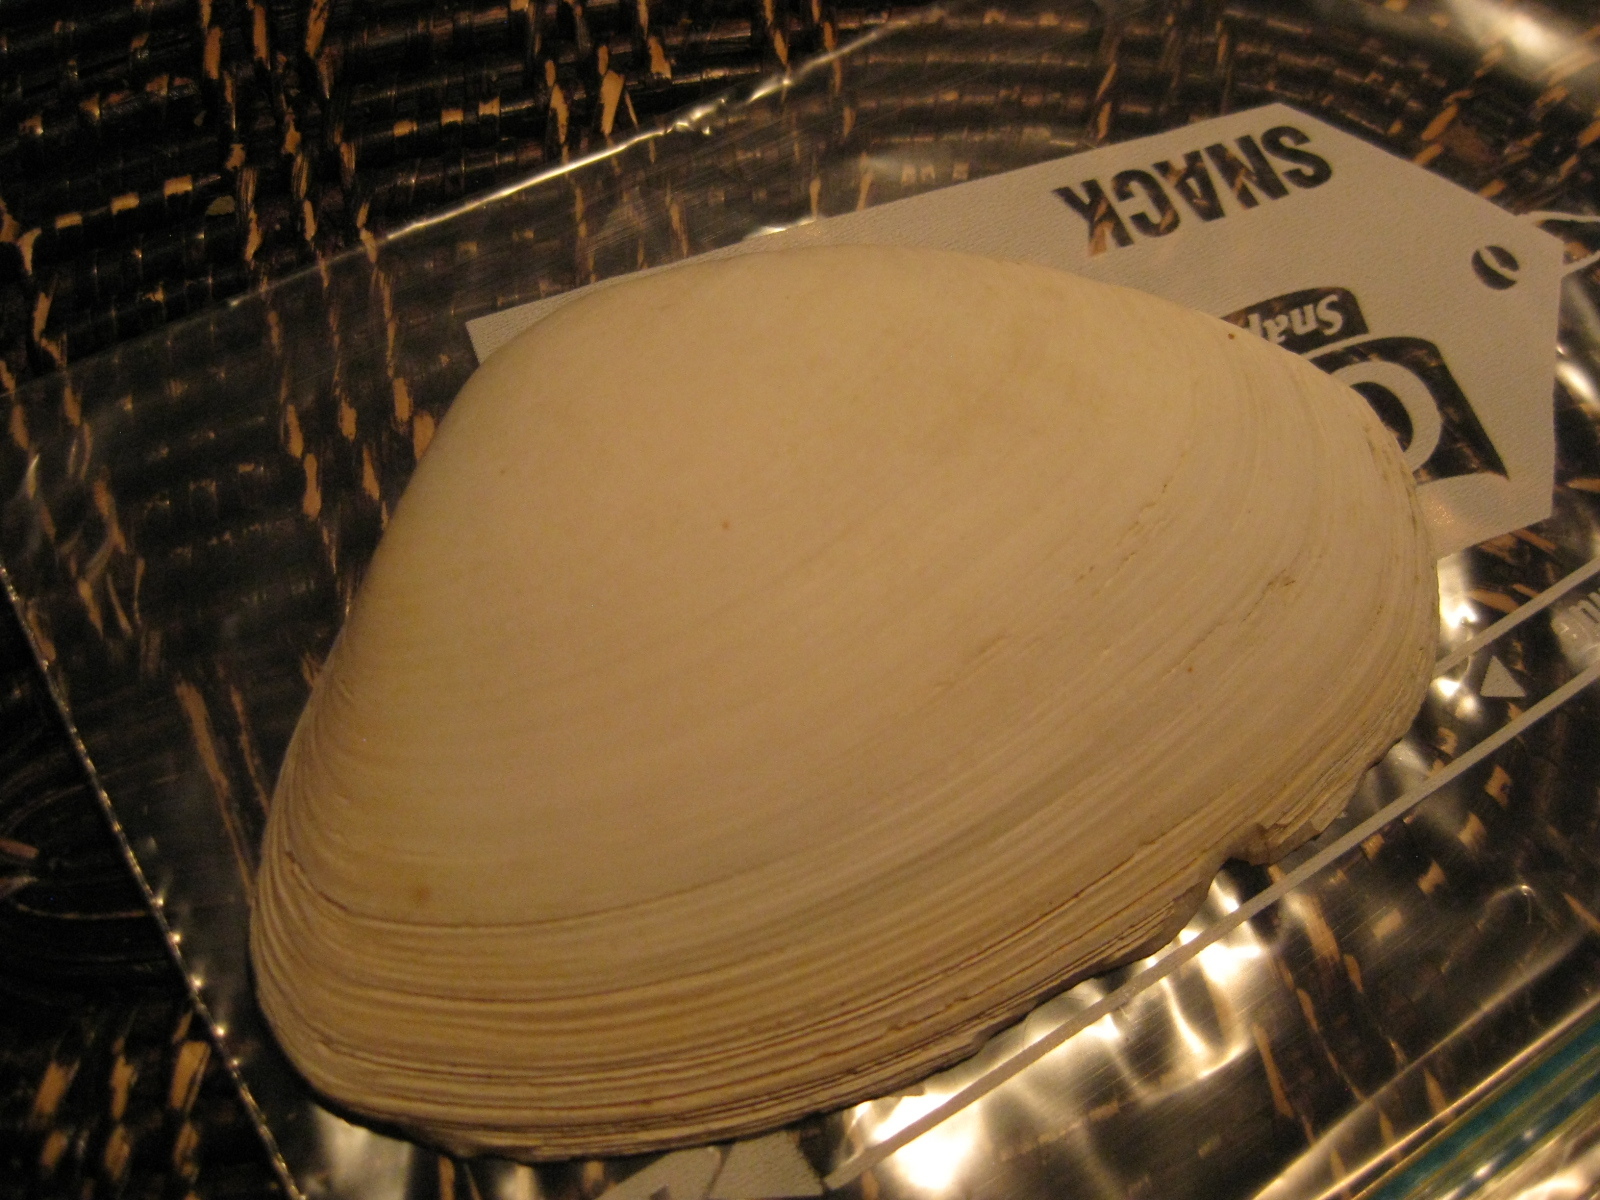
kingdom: Animalia
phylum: Mollusca
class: Bivalvia
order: Venerida
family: Mactridae
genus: Oxyperas
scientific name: Oxyperas elongatum
